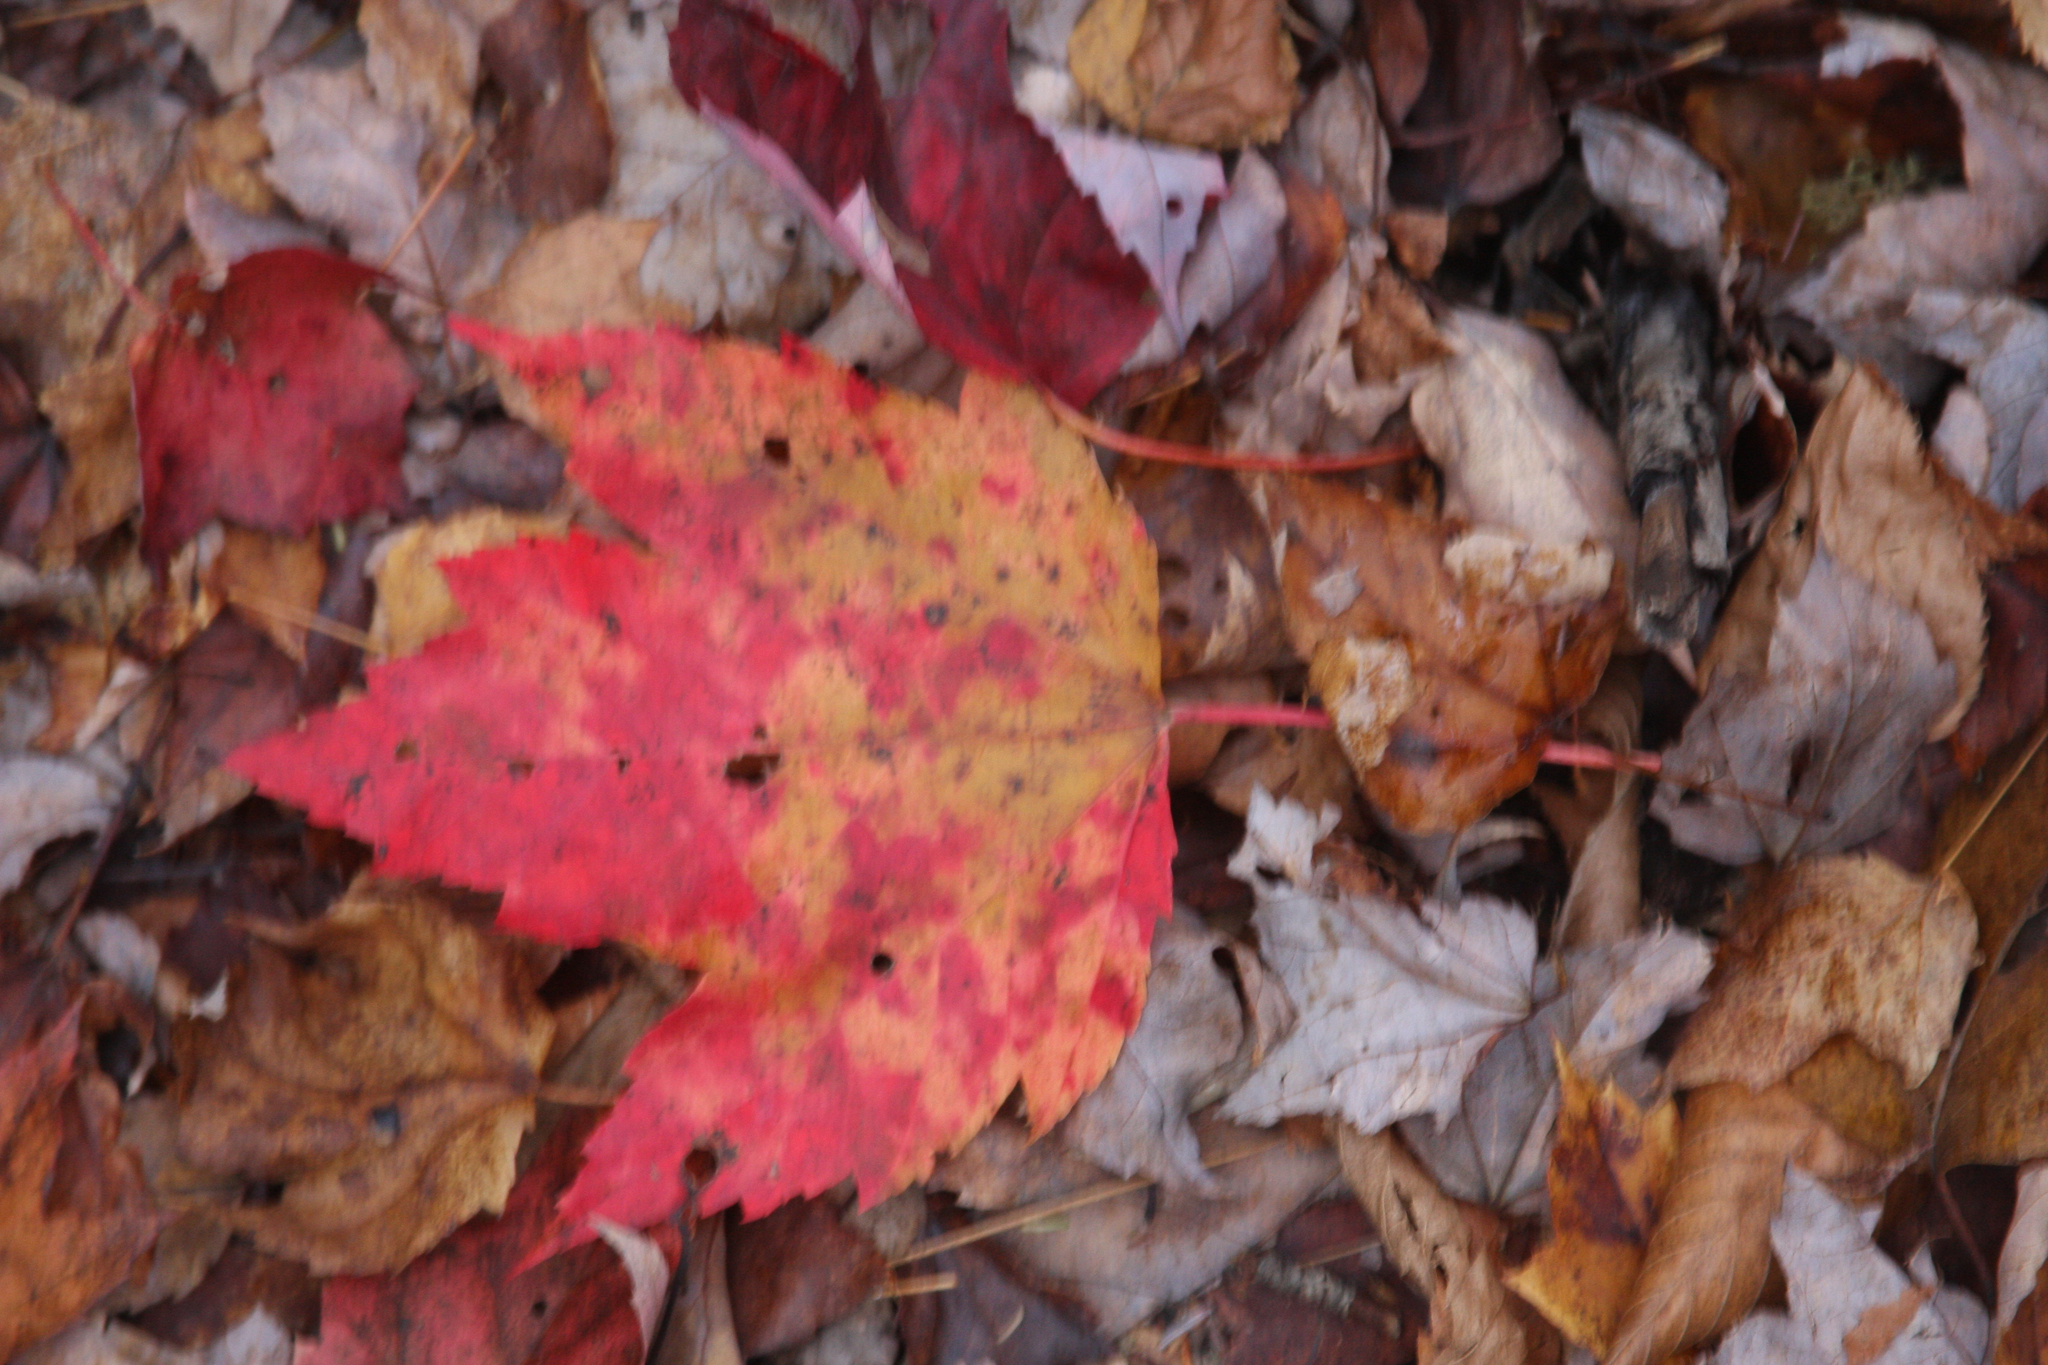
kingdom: Plantae
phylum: Tracheophyta
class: Magnoliopsida
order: Sapindales
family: Sapindaceae
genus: Acer
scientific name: Acer rubrum
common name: Red maple
